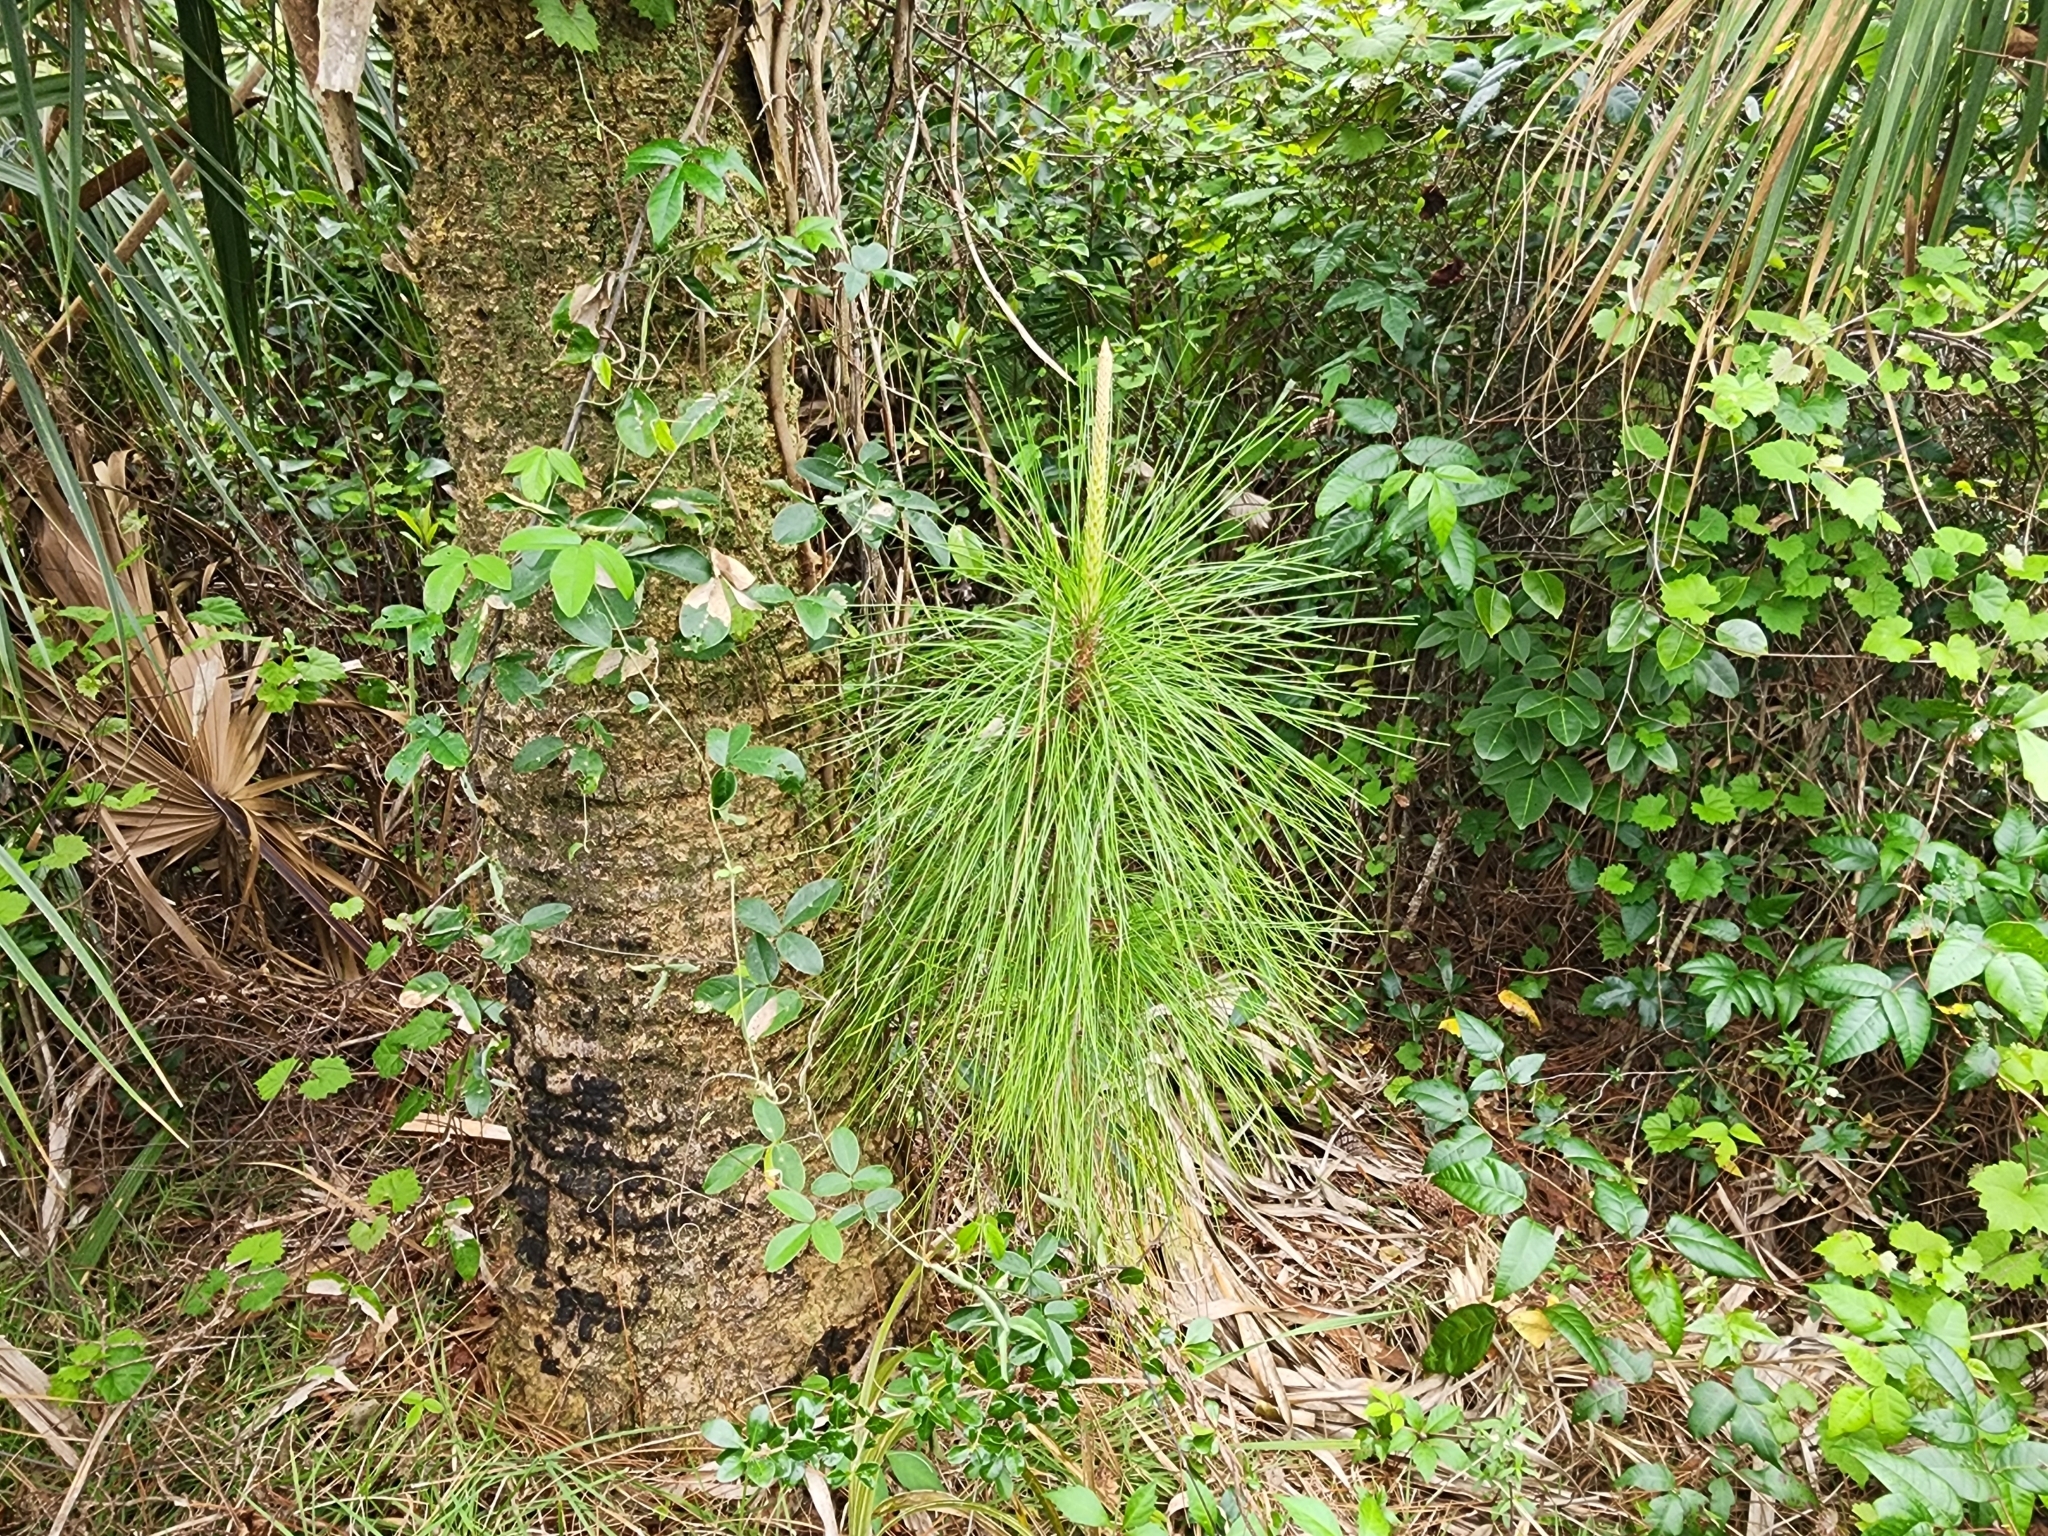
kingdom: Plantae
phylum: Tracheophyta
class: Pinopsida
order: Pinales
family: Pinaceae
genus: Pinus
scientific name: Pinus elliottii
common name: Slash pine
